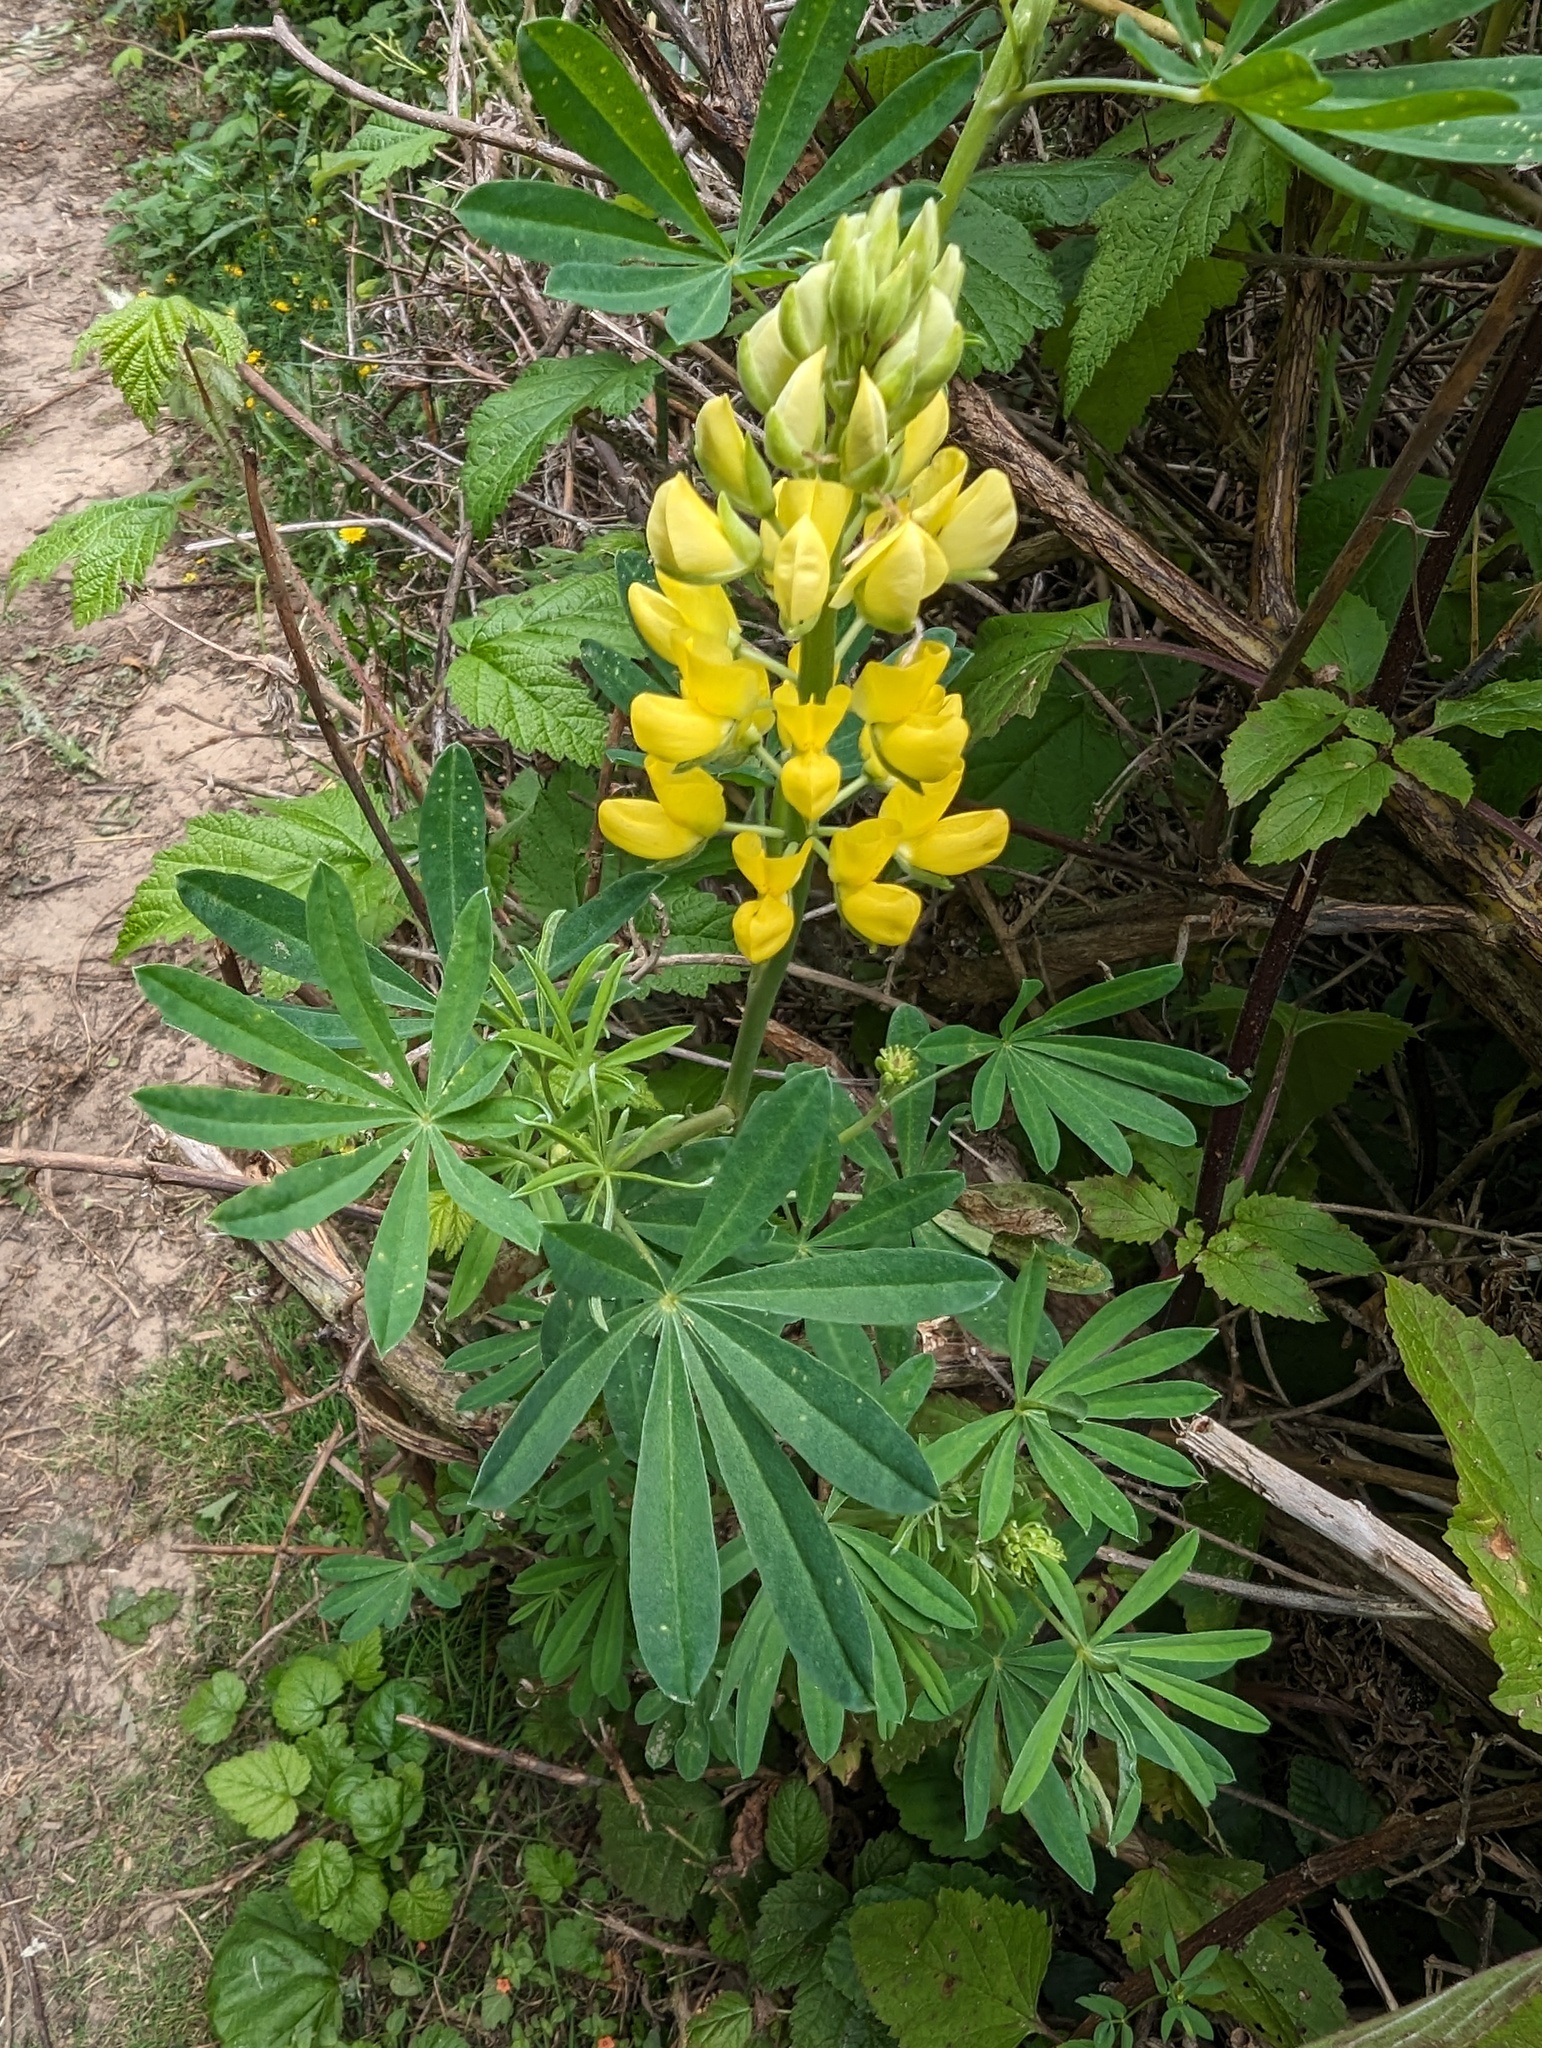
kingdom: Plantae
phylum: Tracheophyta
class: Magnoliopsida
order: Fabales
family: Fabaceae
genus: Lupinus
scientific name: Lupinus arboreus
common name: Yellow bush lupine
